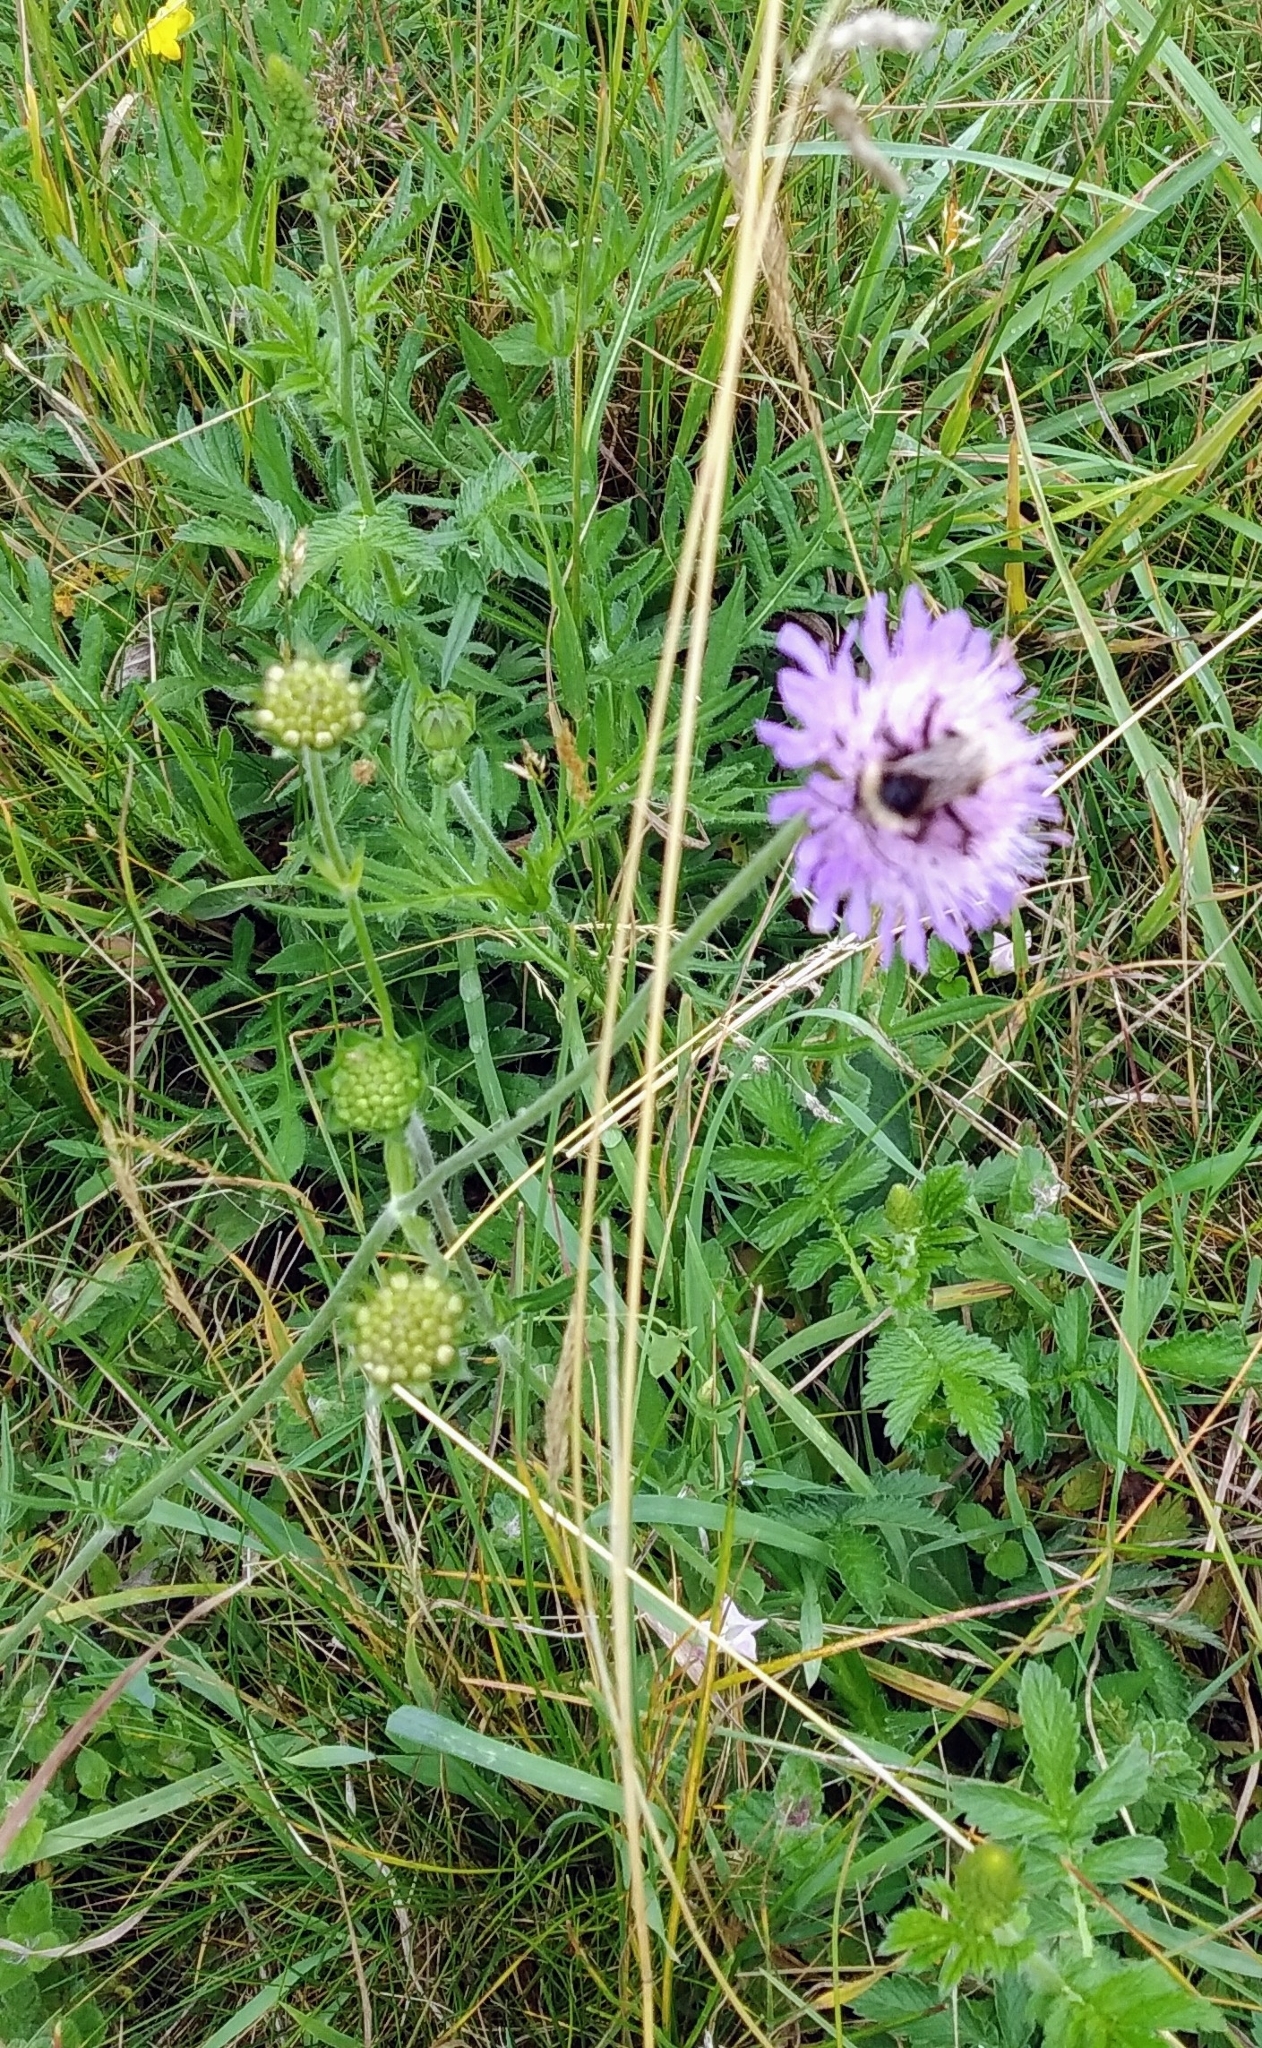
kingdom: Plantae
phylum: Tracheophyta
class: Magnoliopsida
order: Dipsacales
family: Caprifoliaceae
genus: Knautia
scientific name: Knautia arvensis
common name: Field scabiosa
